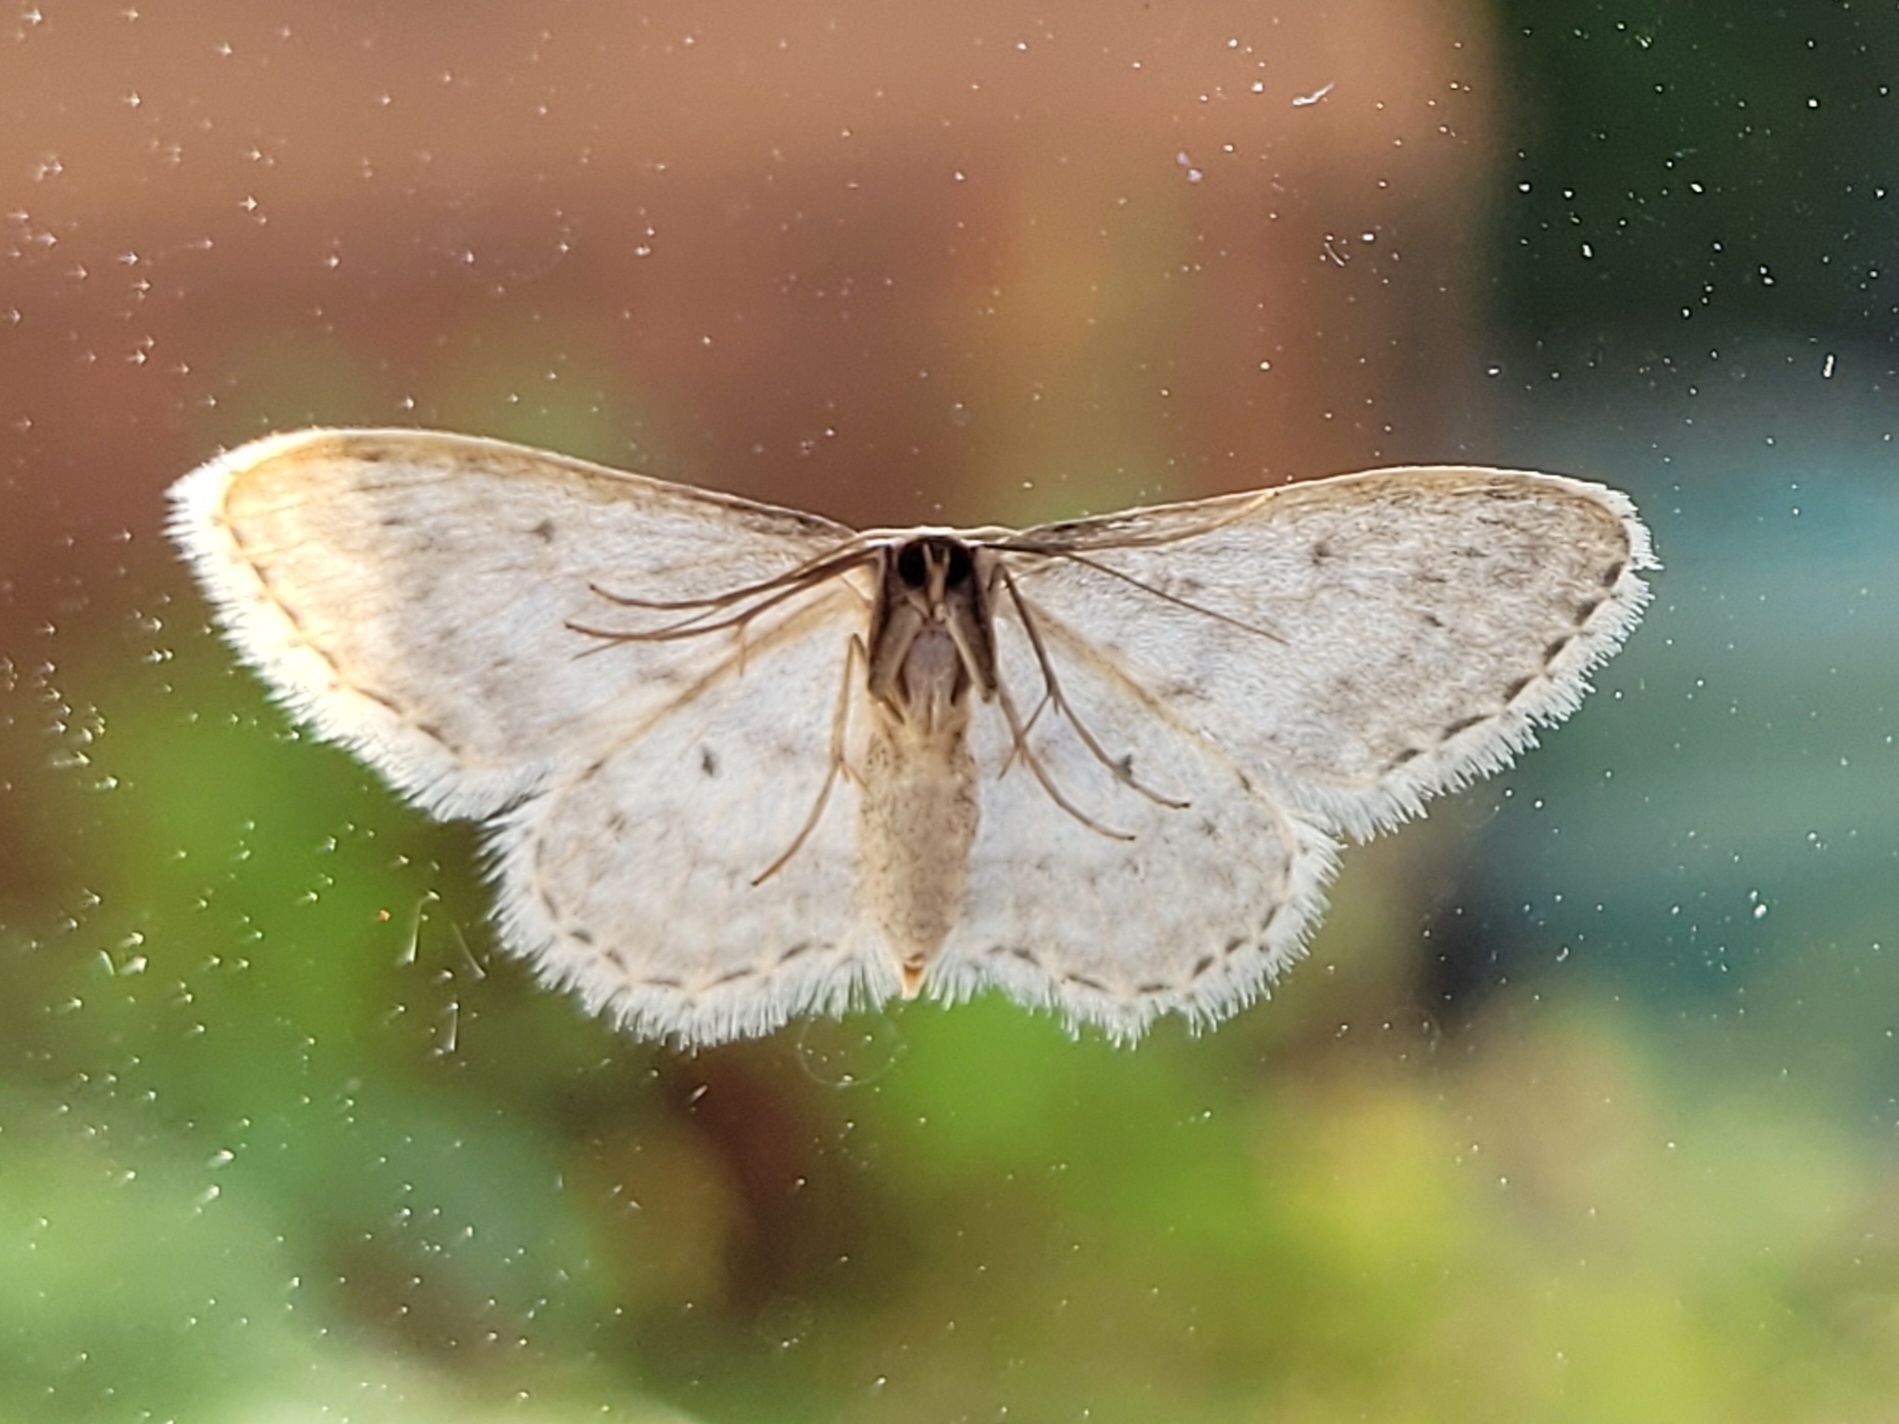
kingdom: Animalia
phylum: Arthropoda
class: Insecta
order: Lepidoptera
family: Geometridae
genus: Idaea
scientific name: Idaea seriata
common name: Small dusty wave
